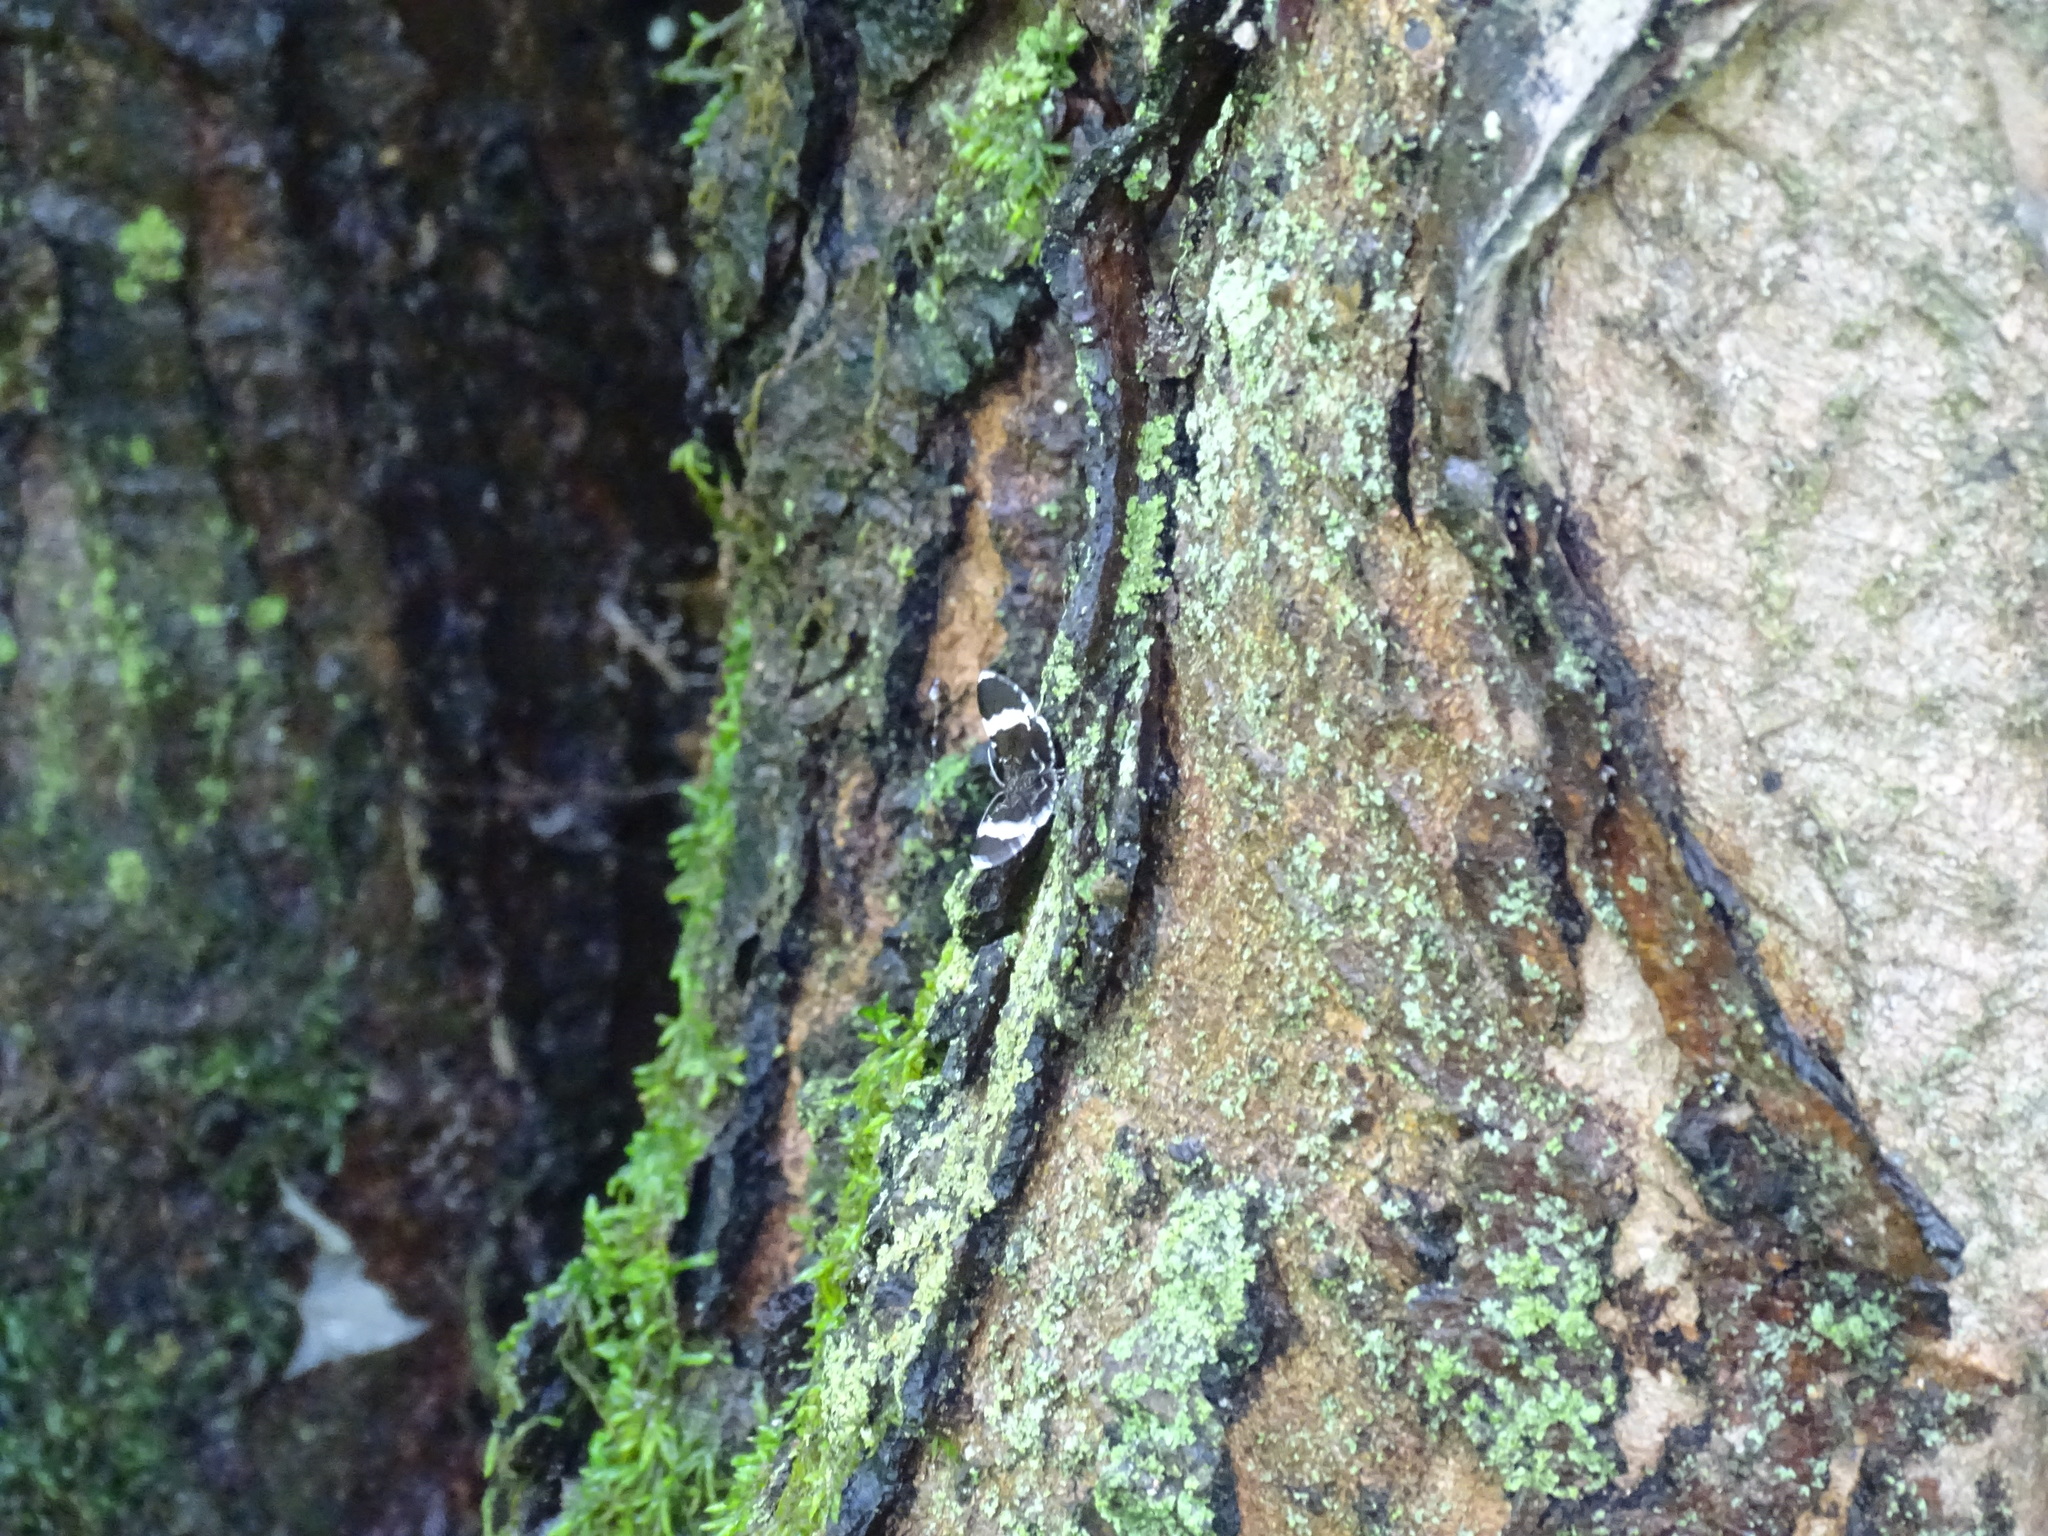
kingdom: Animalia
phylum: Arthropoda
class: Insecta
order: Lepidoptera
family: Geometridae
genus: Trichodezia
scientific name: Trichodezia albovittata
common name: White striped black
